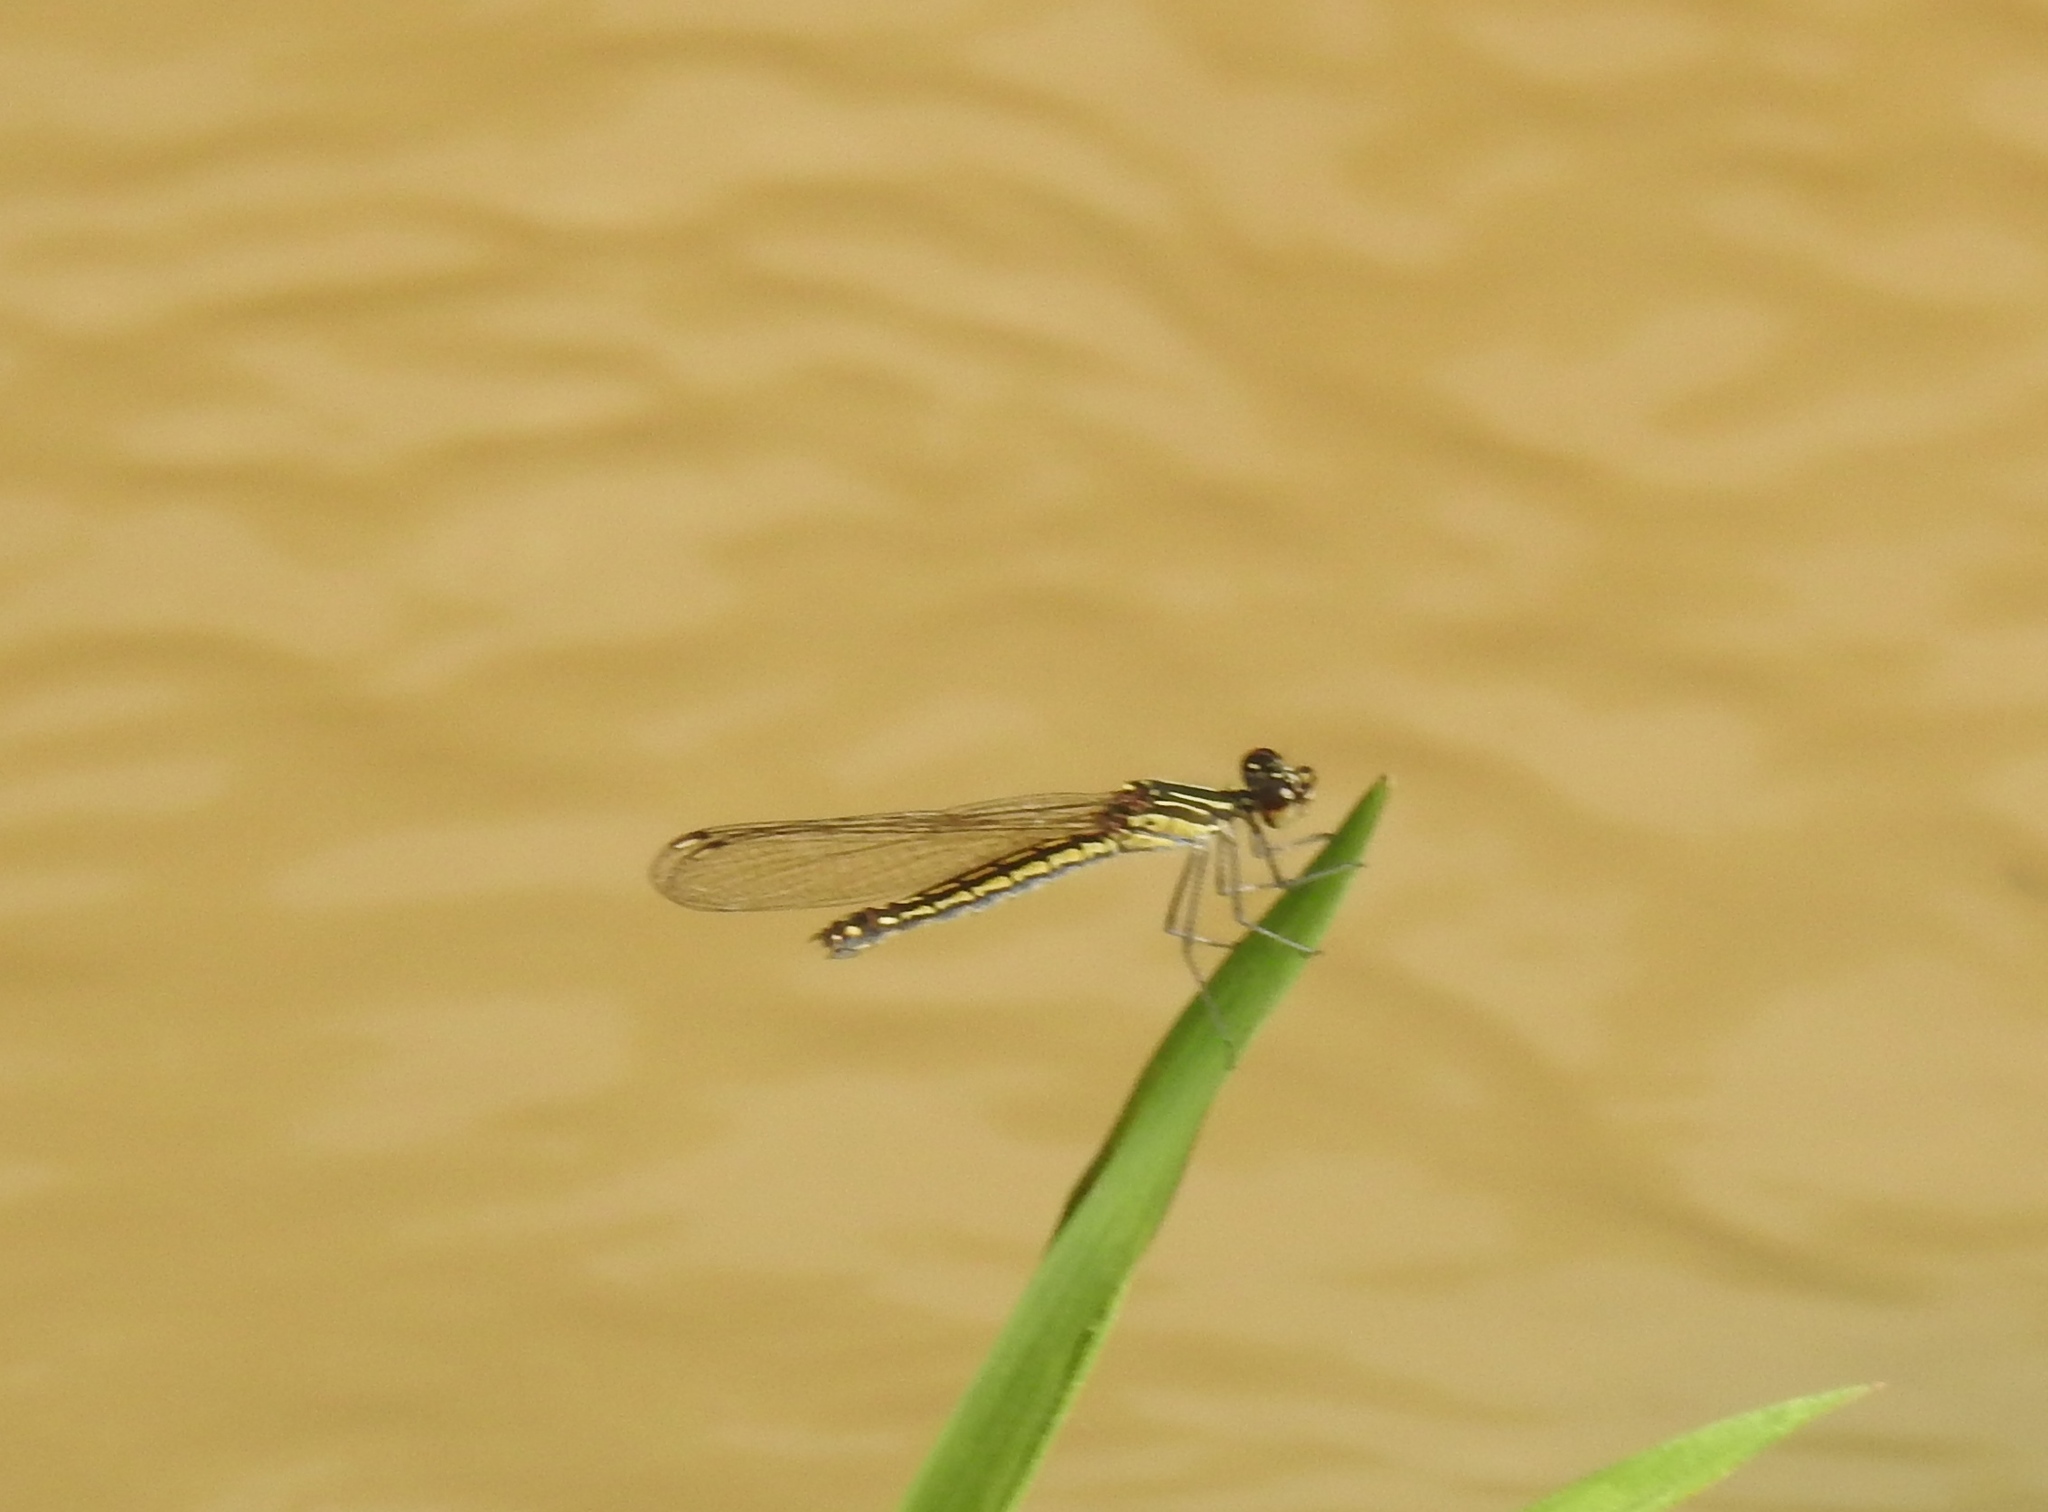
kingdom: Animalia
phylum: Arthropoda
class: Insecta
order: Odonata
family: Chlorocyphidae
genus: Libellago
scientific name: Libellago indica
